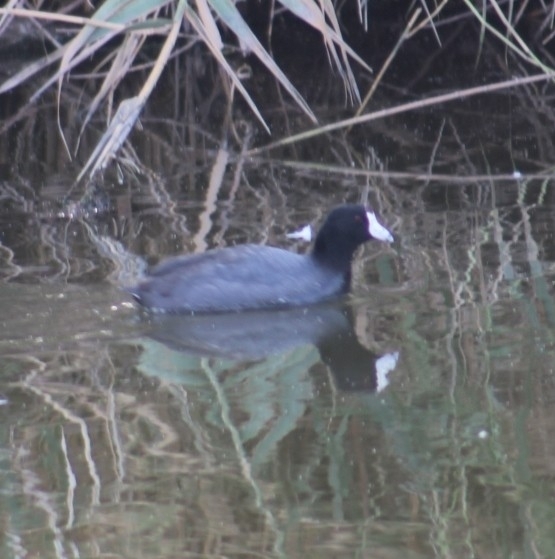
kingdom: Animalia
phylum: Chordata
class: Aves
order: Gruiformes
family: Rallidae
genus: Fulica
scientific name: Fulica americana
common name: American coot
